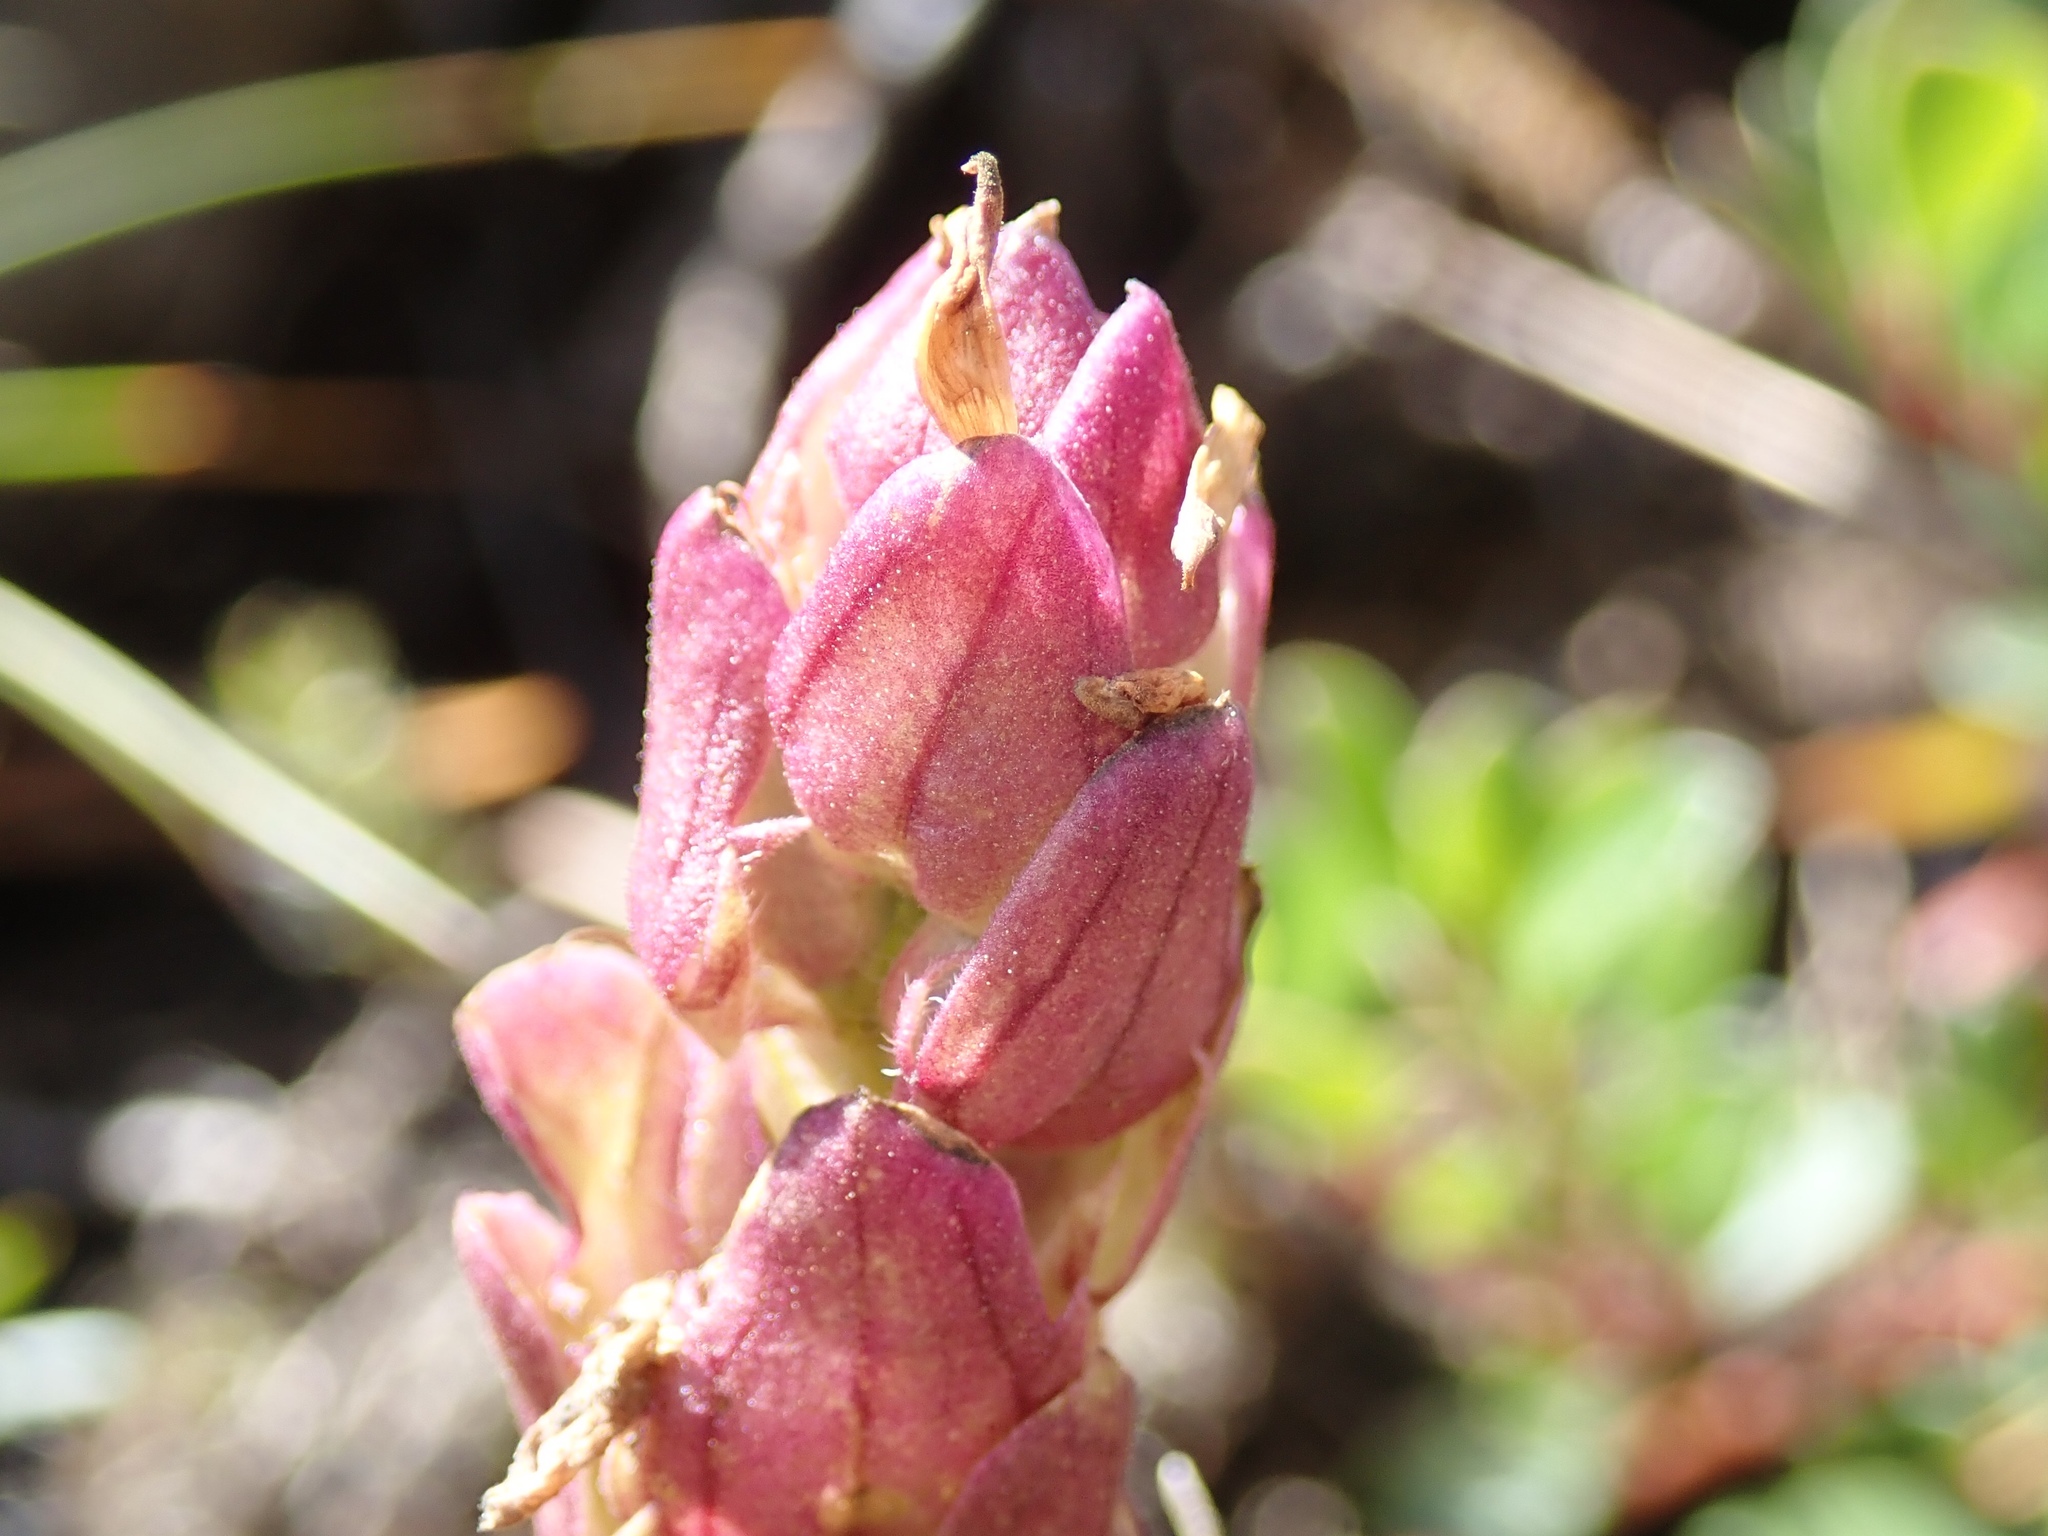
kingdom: Plantae
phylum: Tracheophyta
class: Magnoliopsida
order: Lamiales
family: Orobanchaceae
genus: Orthocarpus
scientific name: Orthocarpus imbricatus
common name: Mountain owl's-clover
